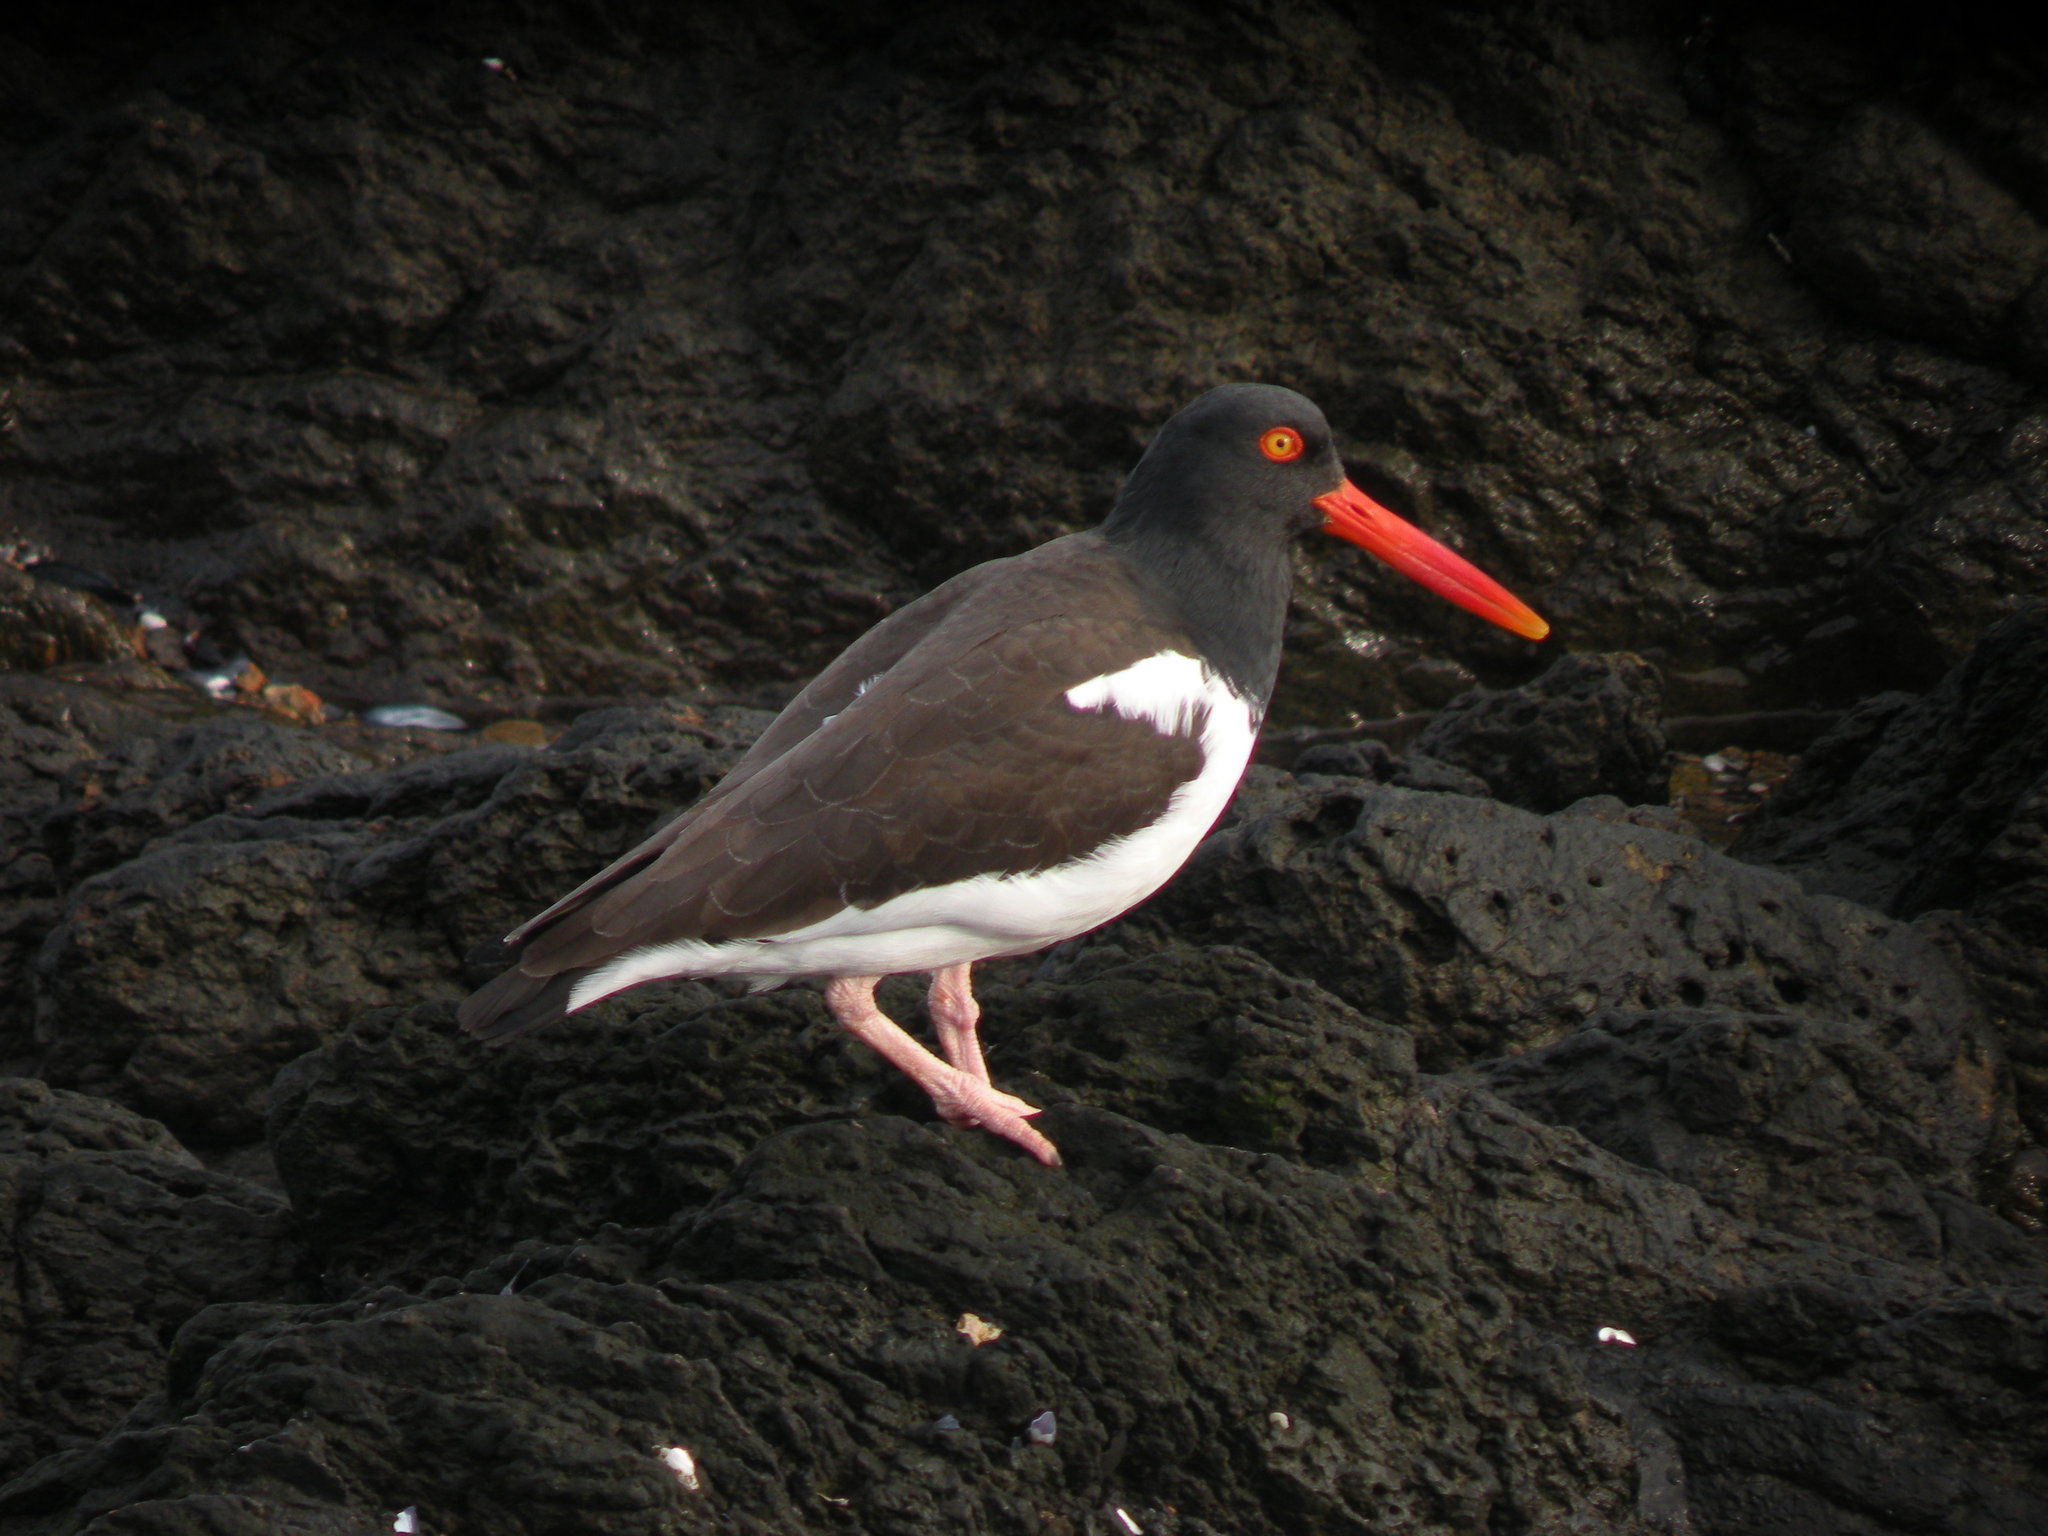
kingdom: Animalia
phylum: Chordata
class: Aves
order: Charadriiformes
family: Haematopodidae
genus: Haematopus
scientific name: Haematopus palliatus
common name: American oystercatcher
